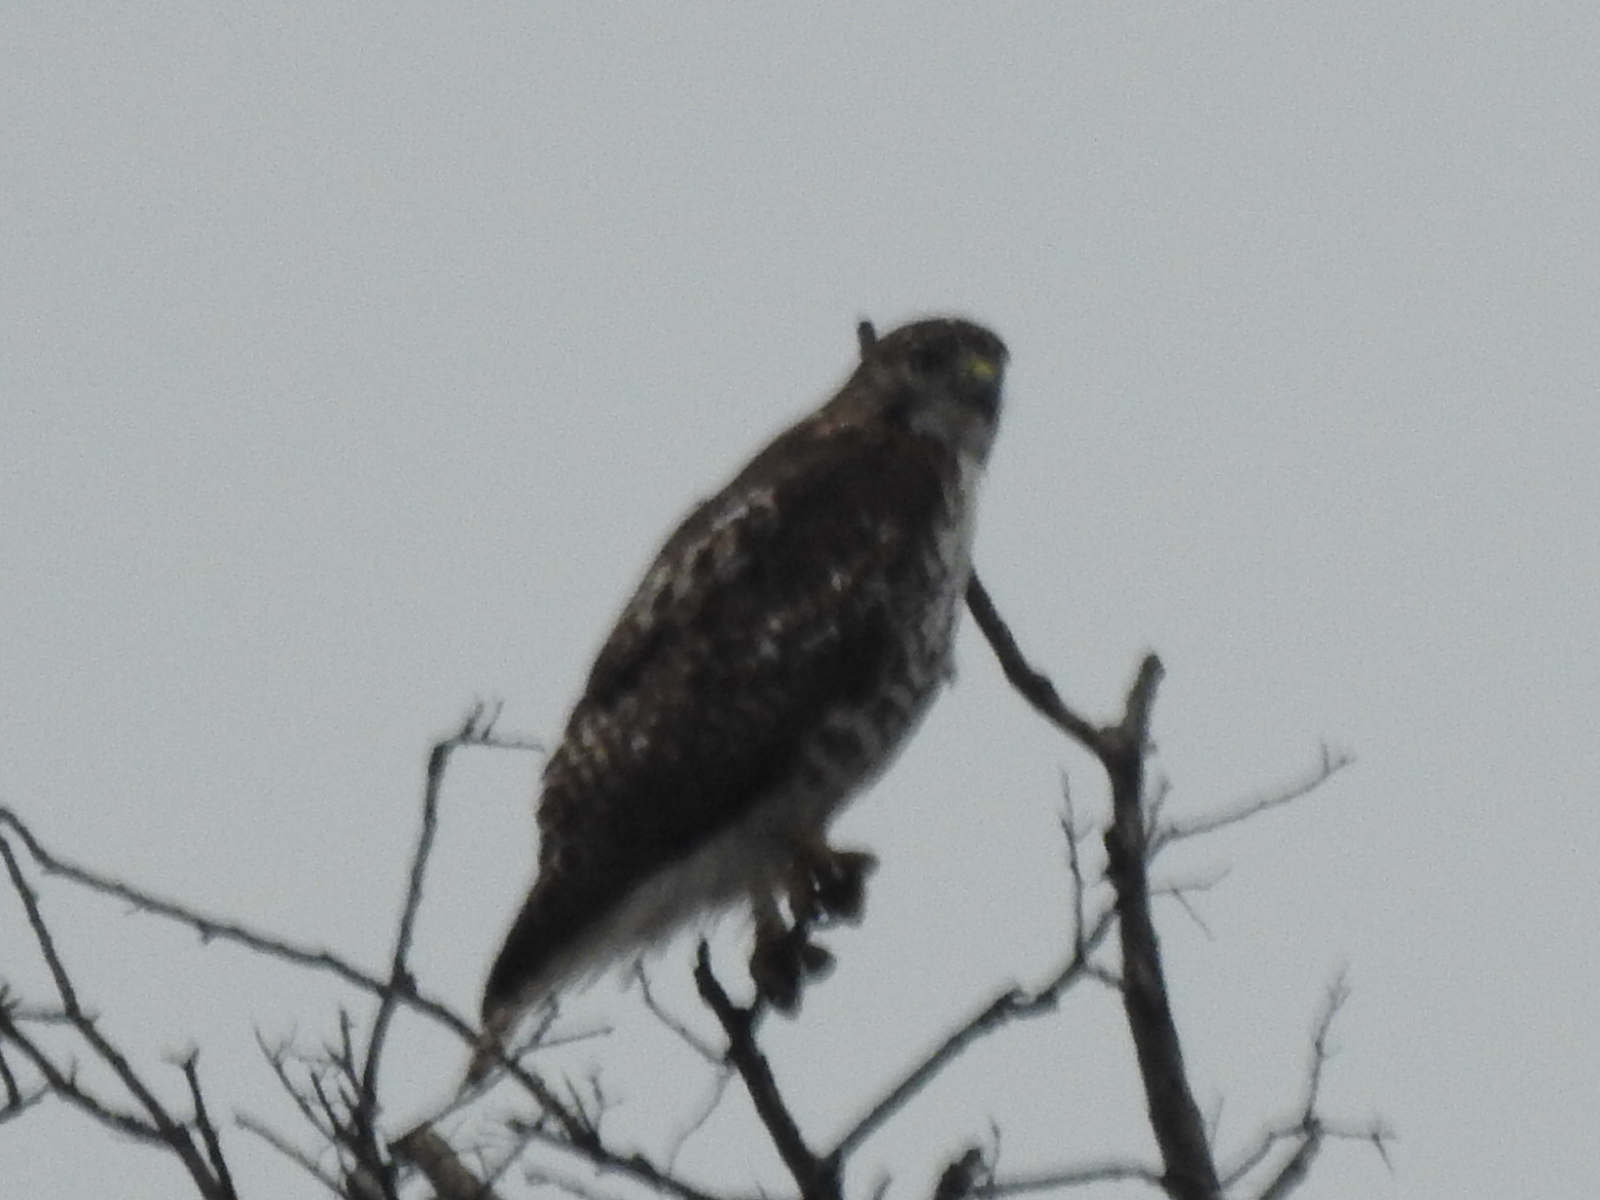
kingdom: Animalia
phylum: Chordata
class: Aves
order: Accipitriformes
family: Accipitridae
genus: Buteo
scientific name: Buteo jamaicensis
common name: Red-tailed hawk
